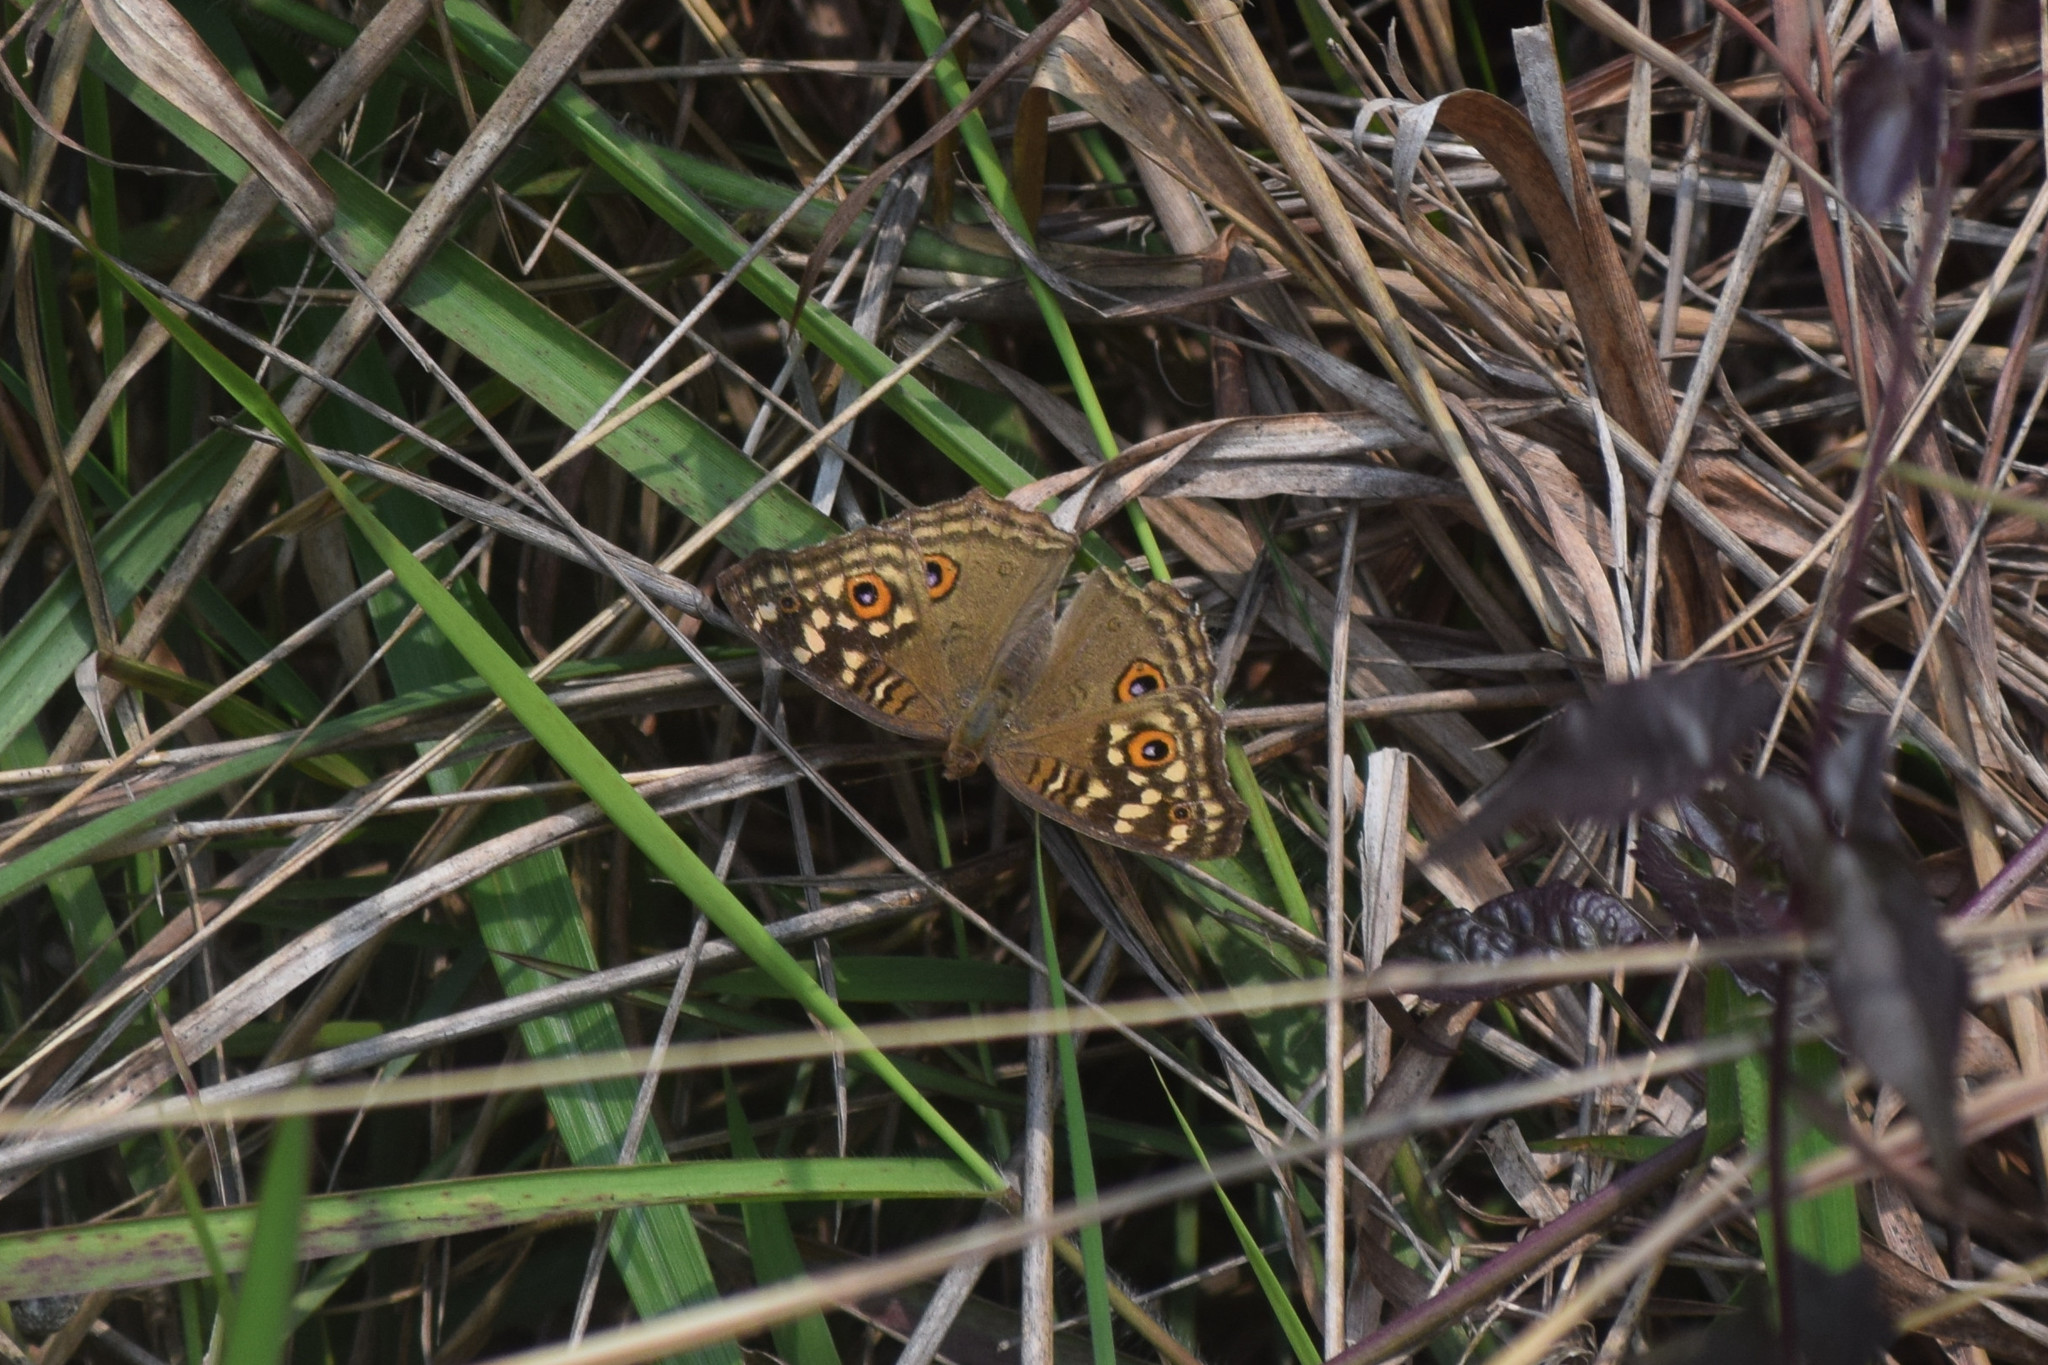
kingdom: Animalia
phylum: Arthropoda
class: Insecta
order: Lepidoptera
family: Nymphalidae
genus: Junonia
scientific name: Junonia lemonias
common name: Lemon pansy
